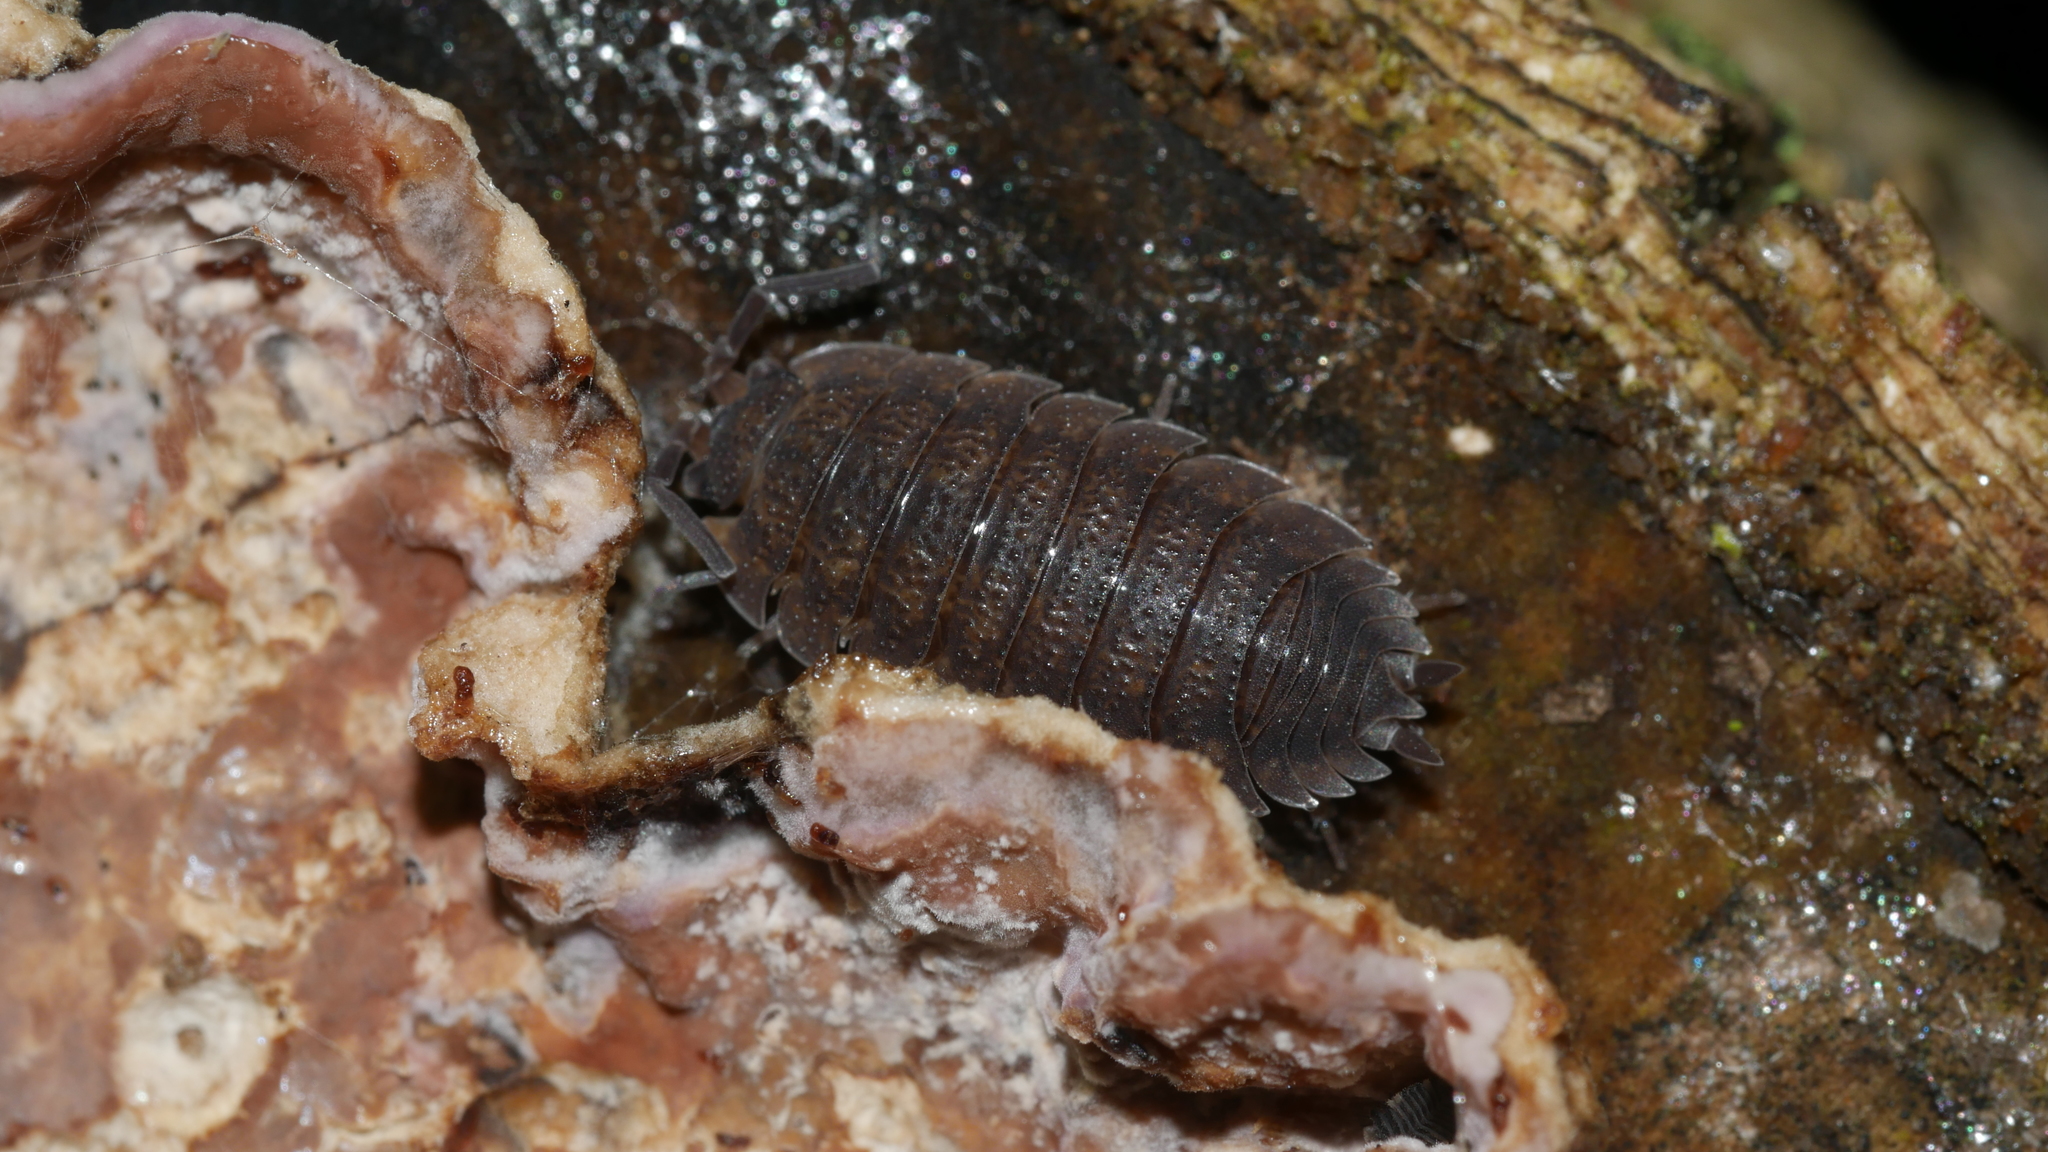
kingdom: Animalia
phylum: Arthropoda
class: Malacostraca
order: Isopoda
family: Porcellionidae
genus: Porcellio
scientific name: Porcellio scaber
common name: Common rough woodlouse
